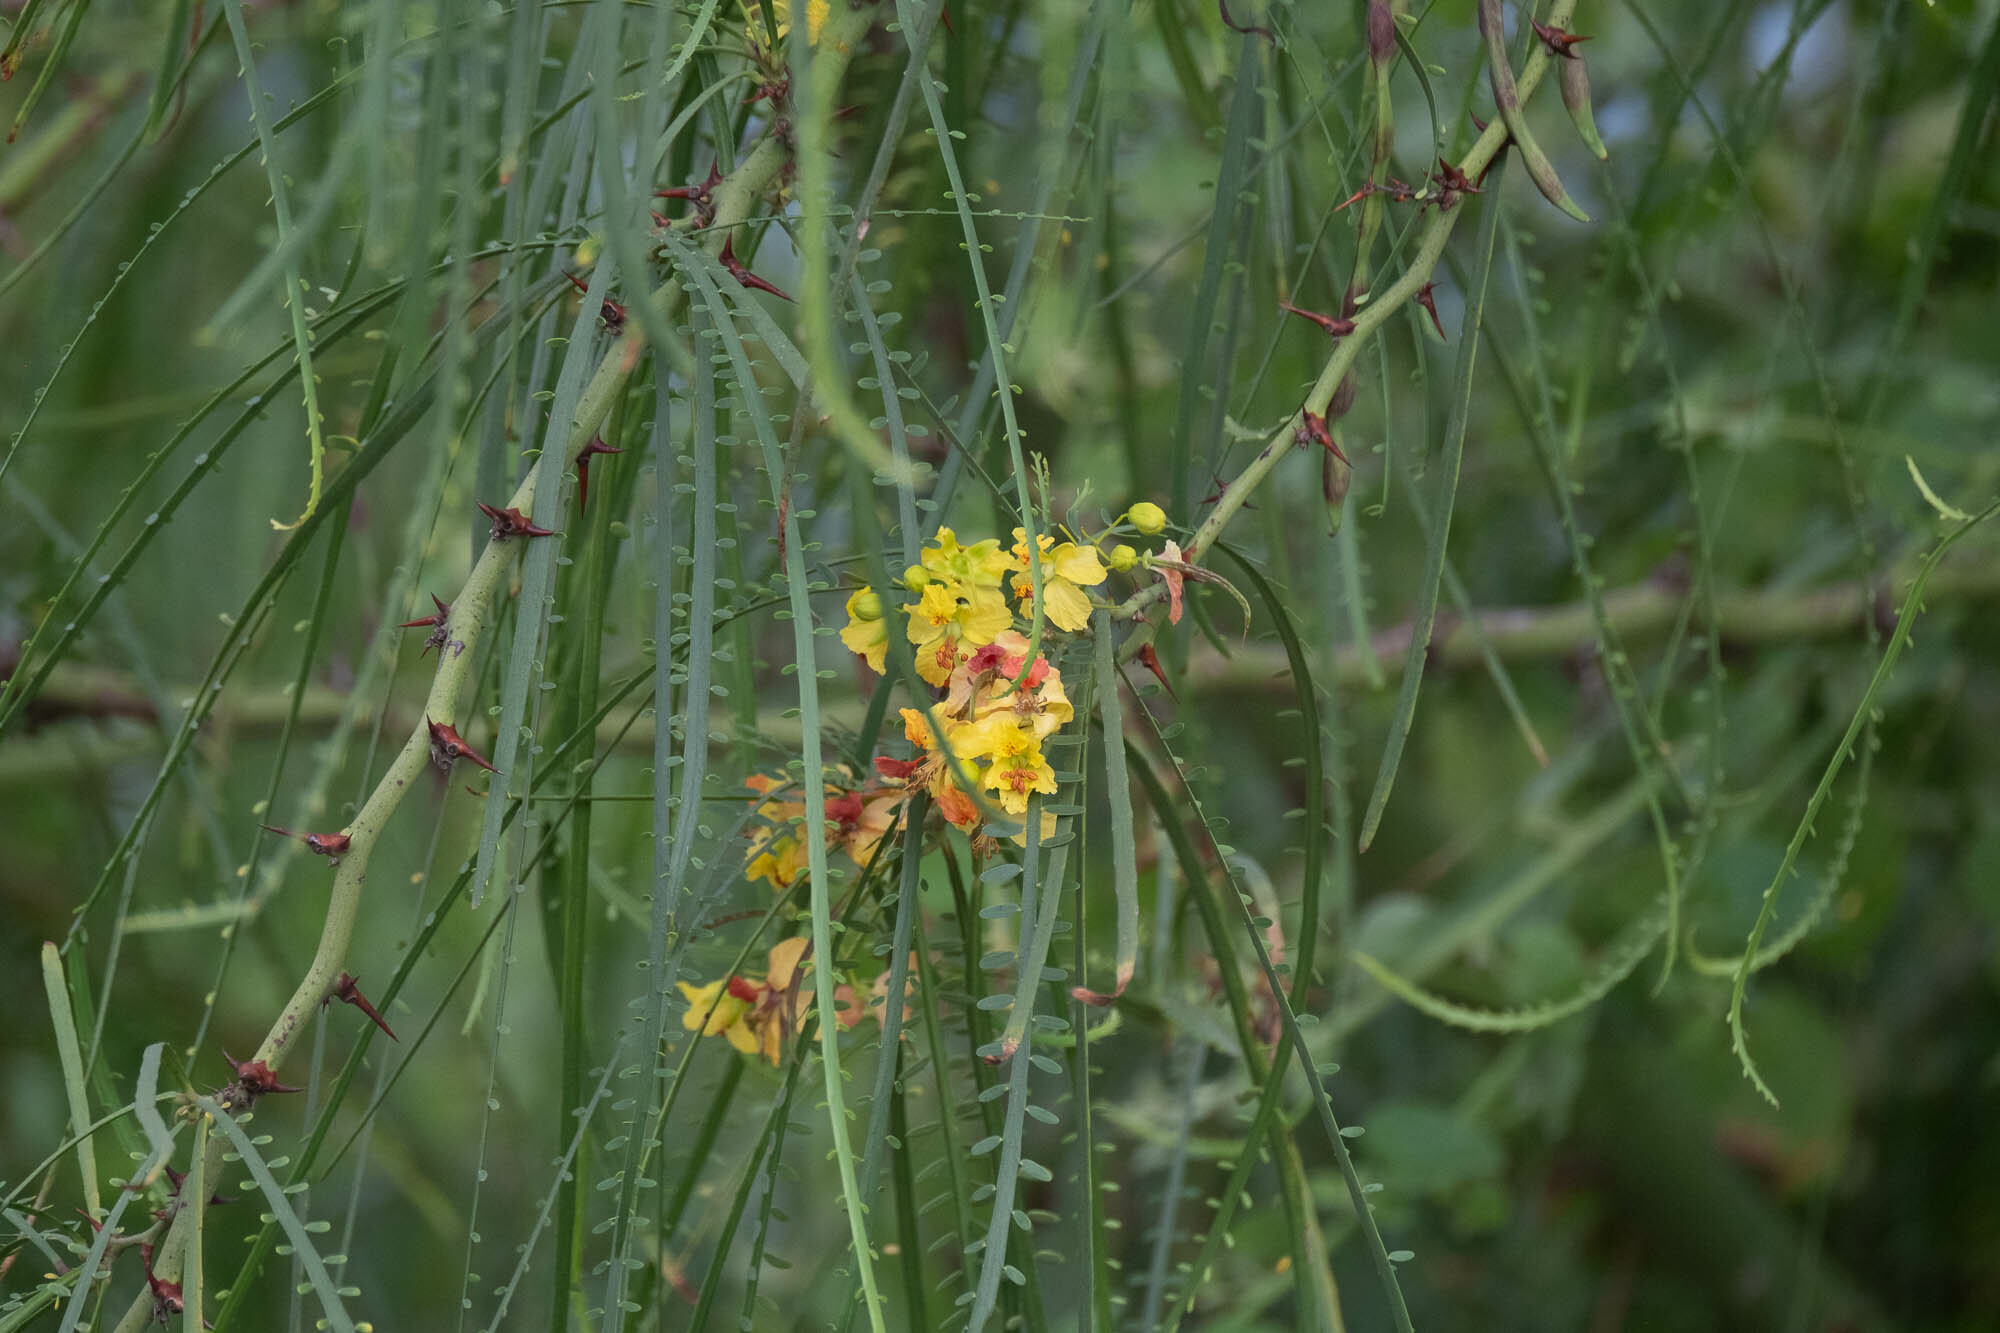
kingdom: Plantae
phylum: Tracheophyta
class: Magnoliopsida
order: Fabales
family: Fabaceae
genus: Parkinsonia
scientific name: Parkinsonia aculeata
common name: Jerusalem thorn
